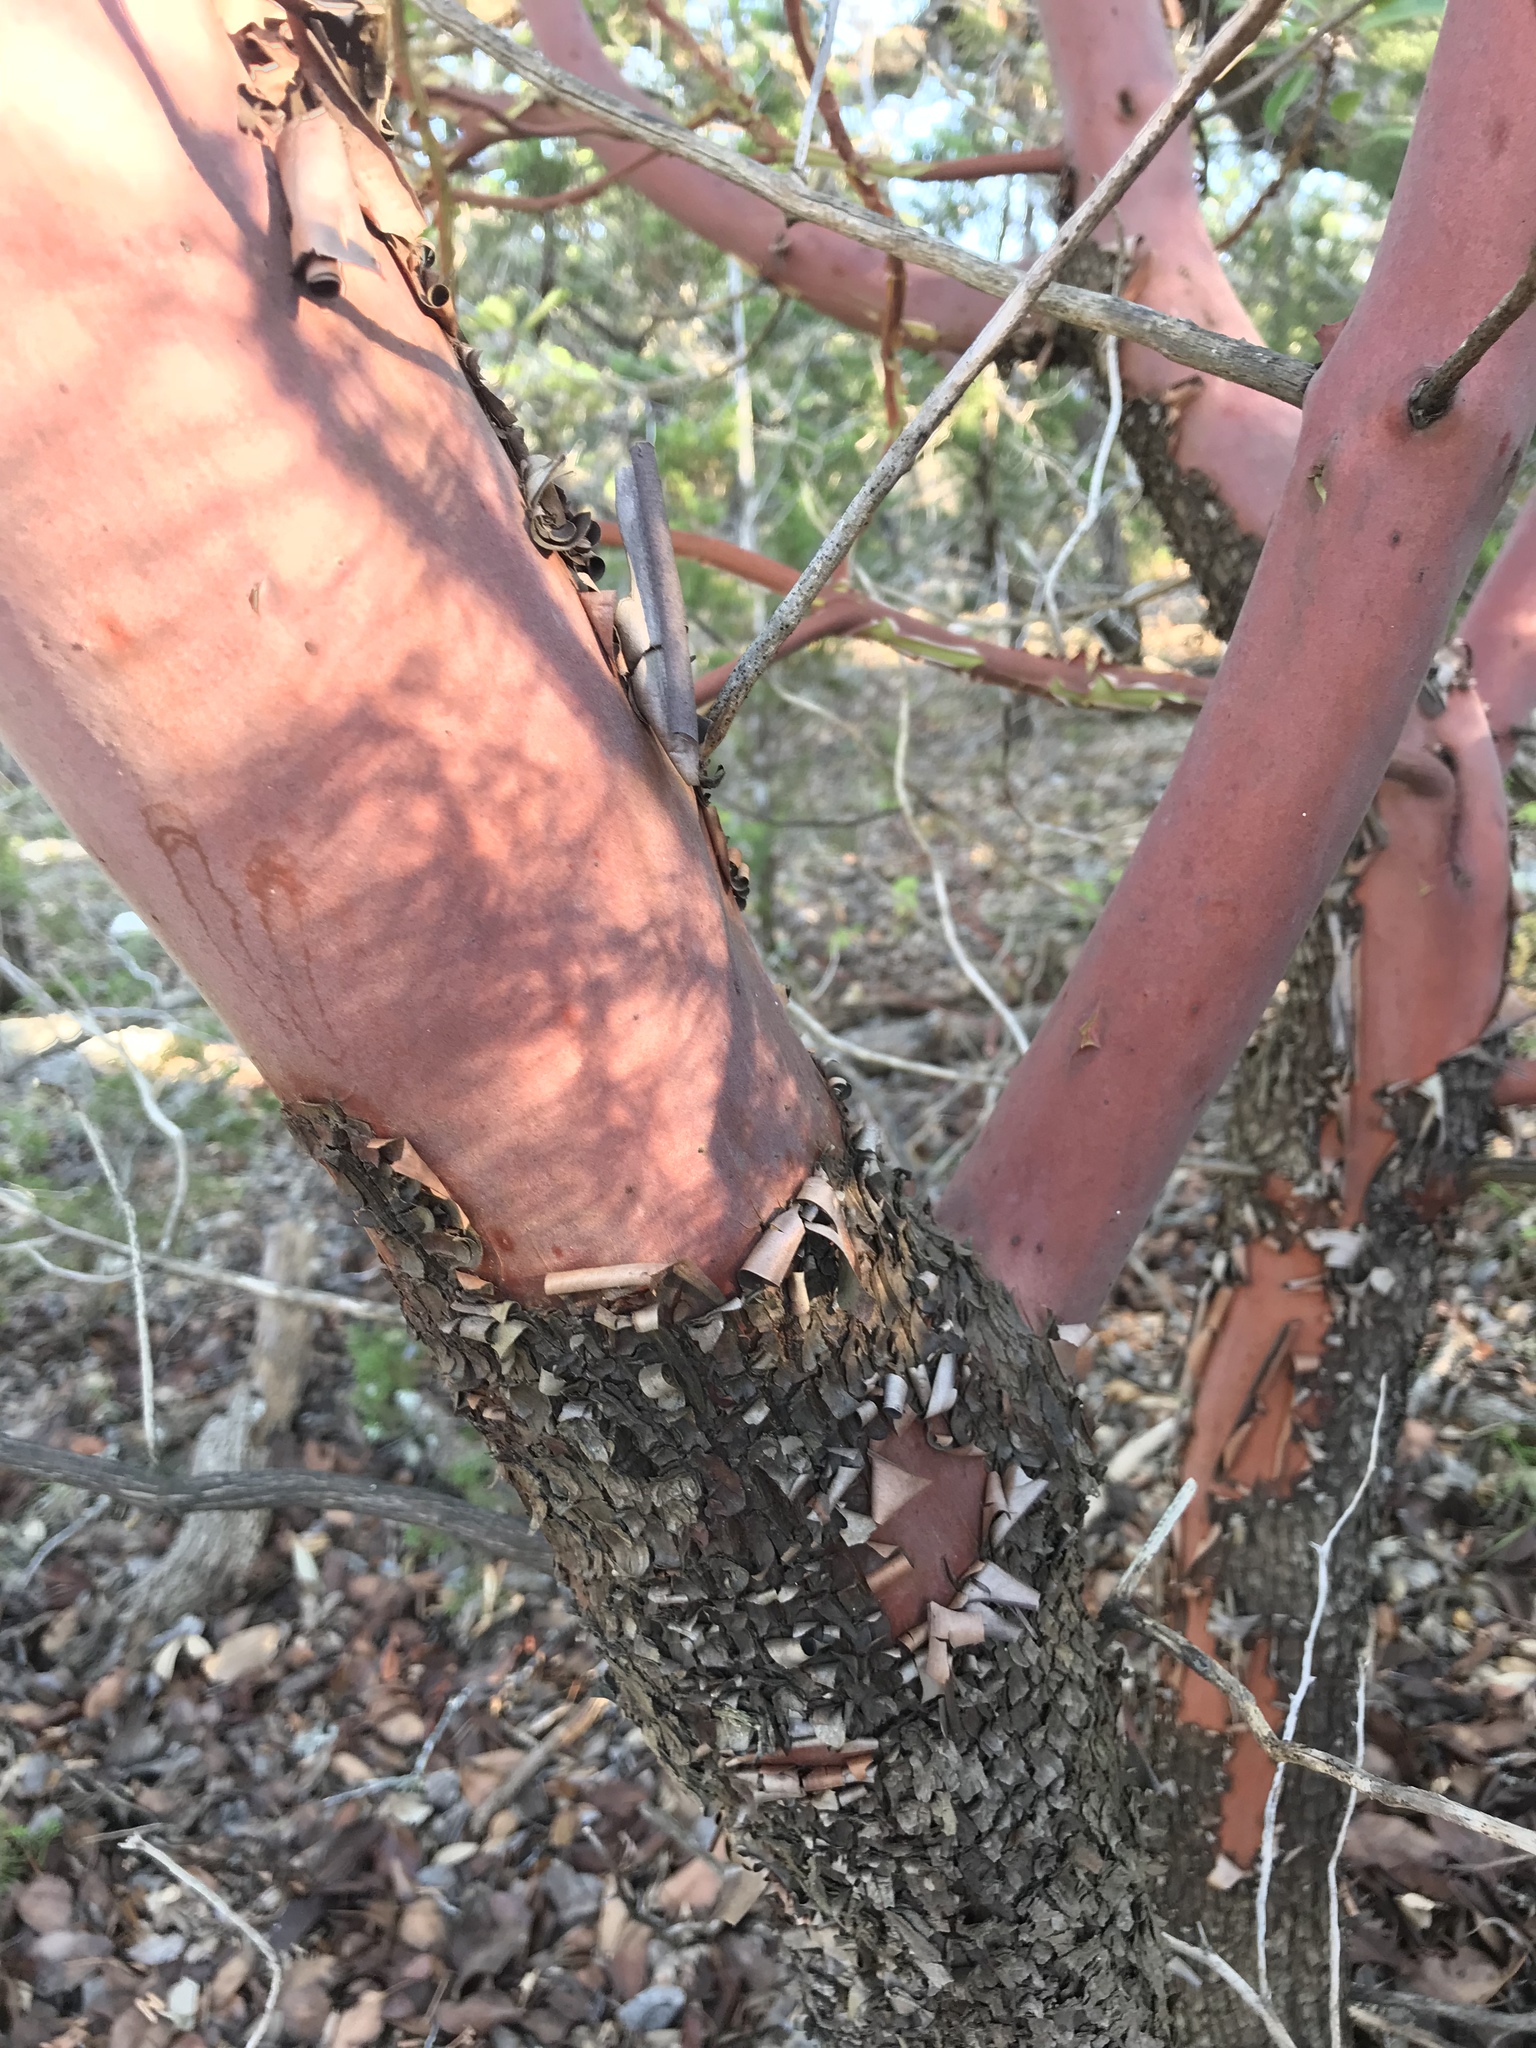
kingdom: Plantae
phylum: Tracheophyta
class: Magnoliopsida
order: Ericales
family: Ericaceae
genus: Arbutus
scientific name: Arbutus xalapensis
